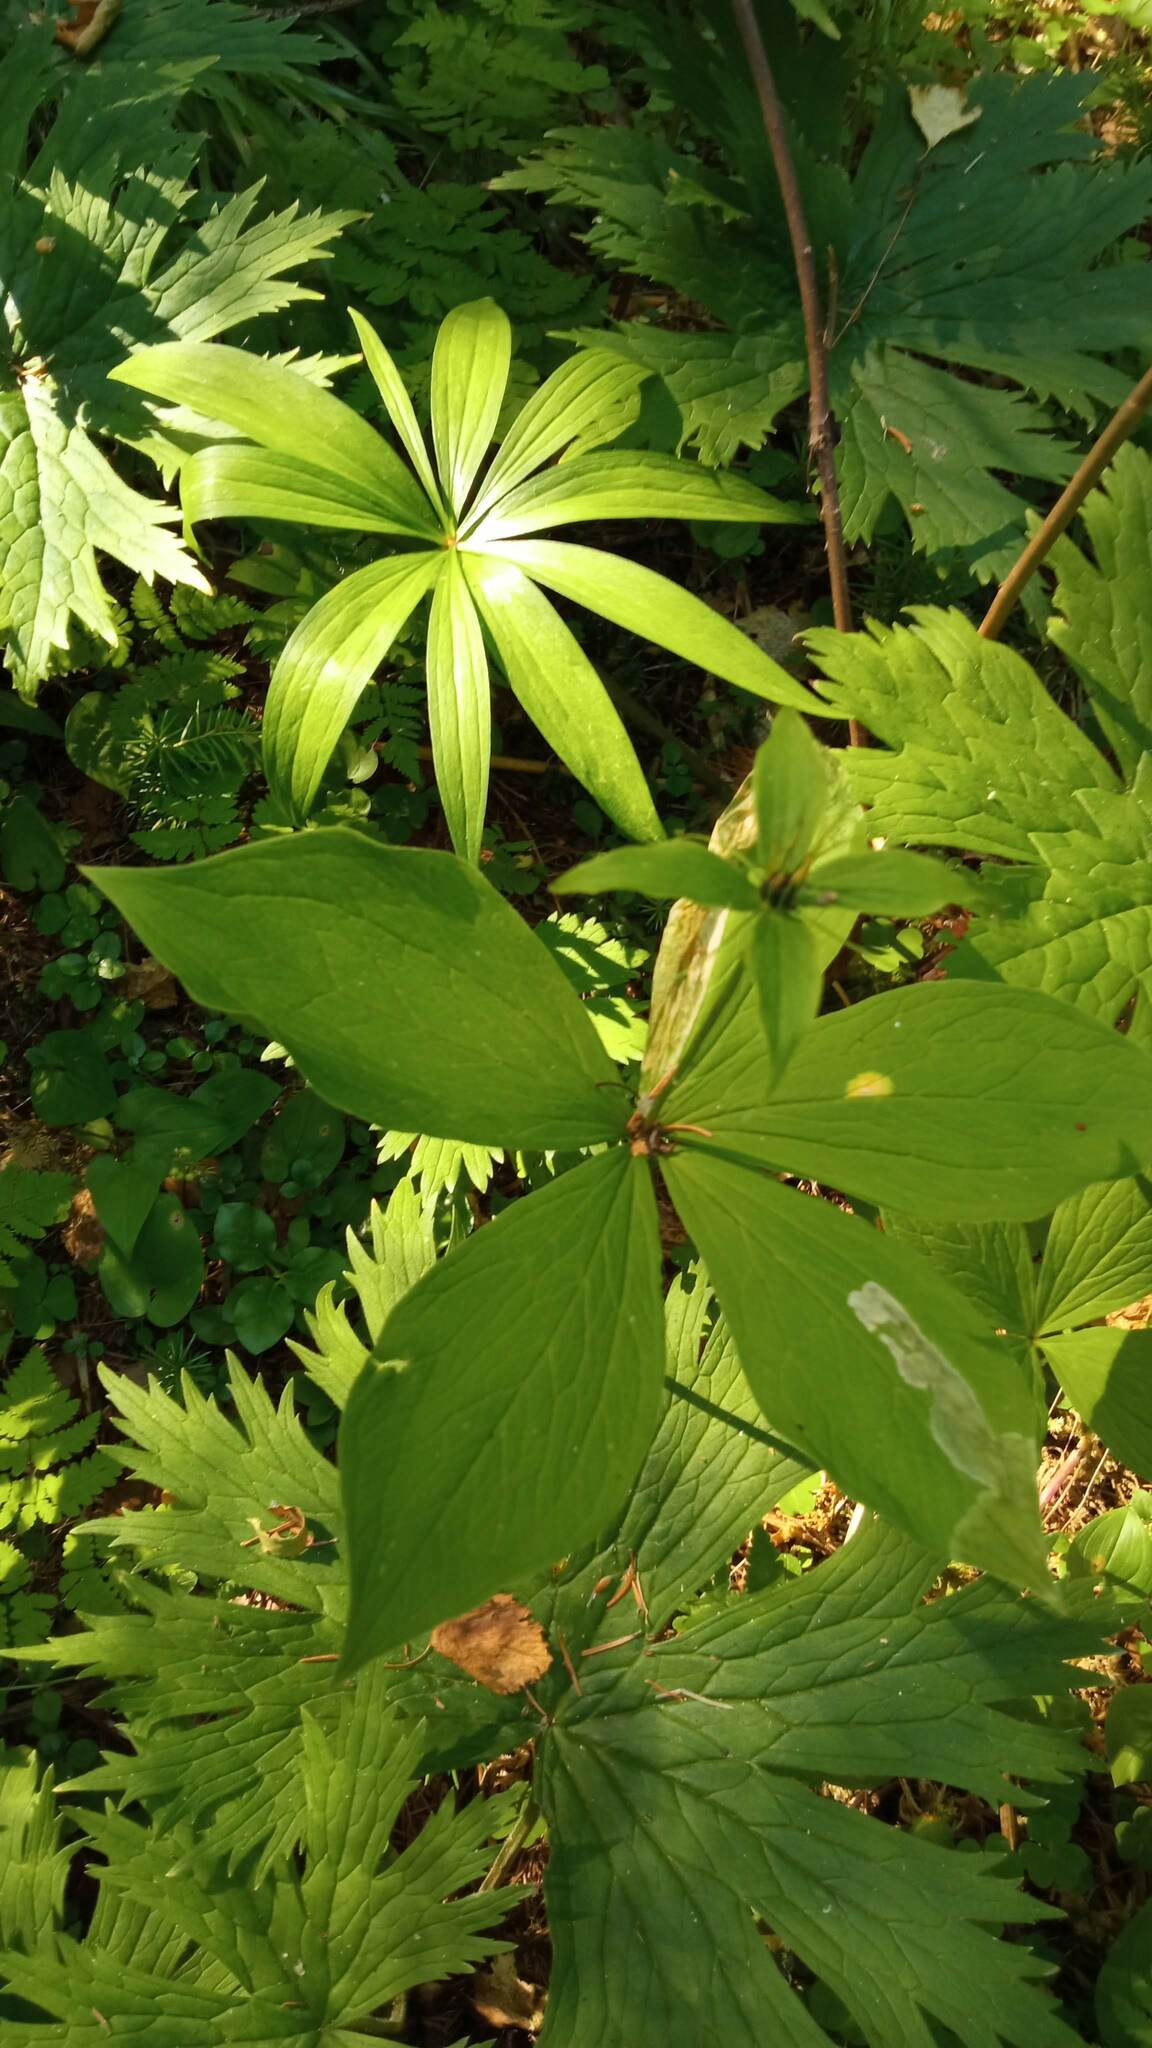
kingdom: Plantae
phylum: Tracheophyta
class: Liliopsida
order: Liliales
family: Melanthiaceae
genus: Paris
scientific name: Paris verticillata
